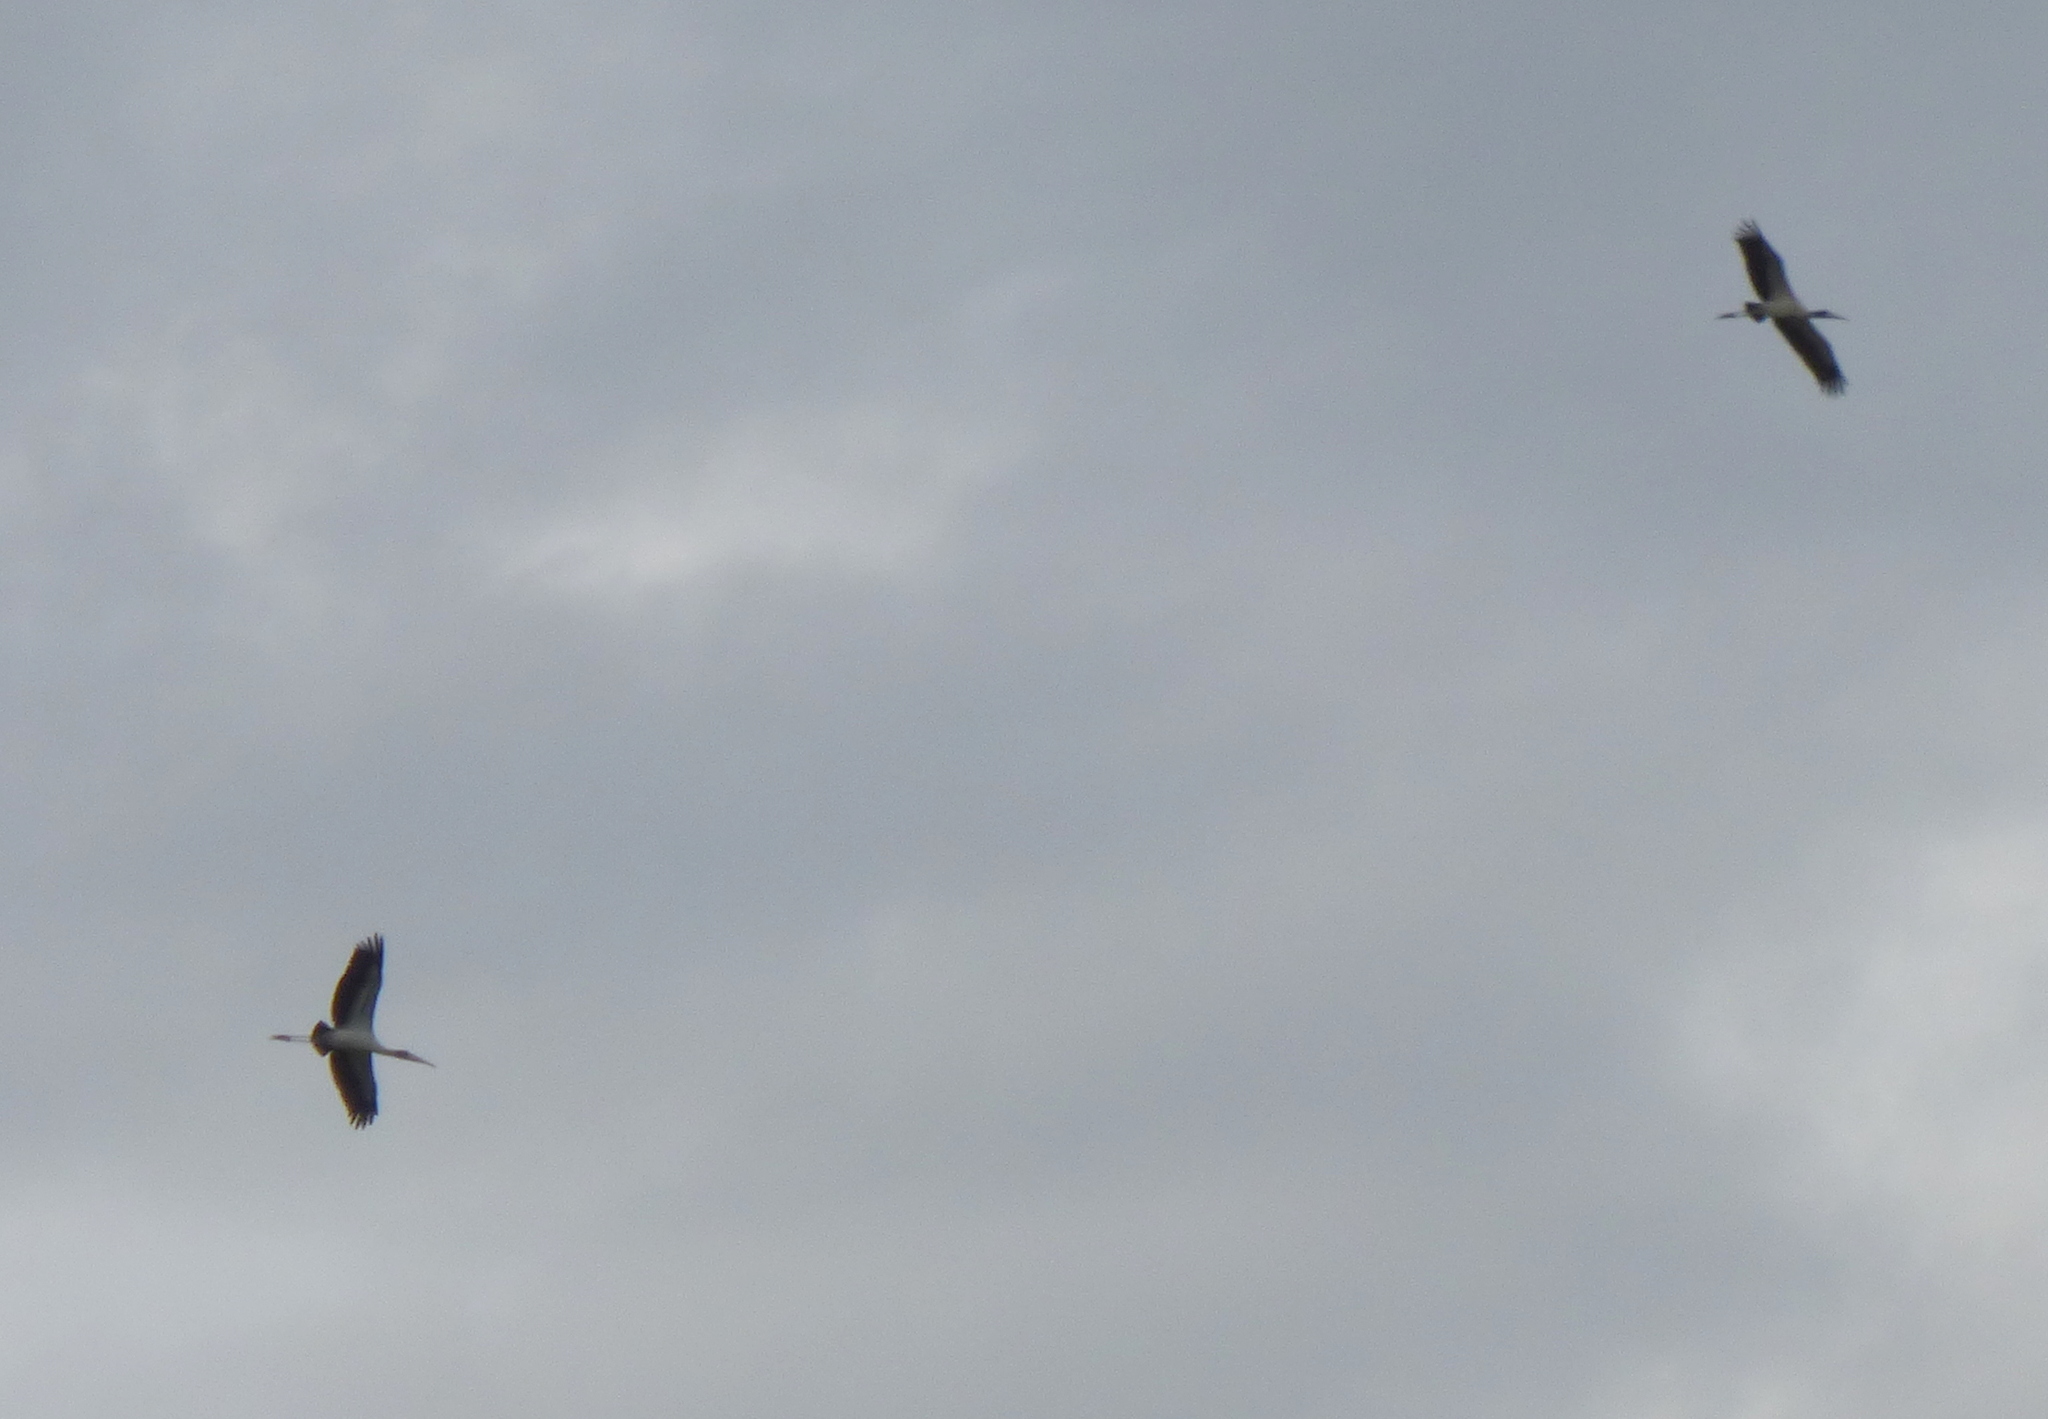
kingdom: Animalia
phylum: Chordata
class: Aves
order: Ciconiiformes
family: Ciconiidae
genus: Mycteria
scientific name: Mycteria americana
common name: Wood stork
